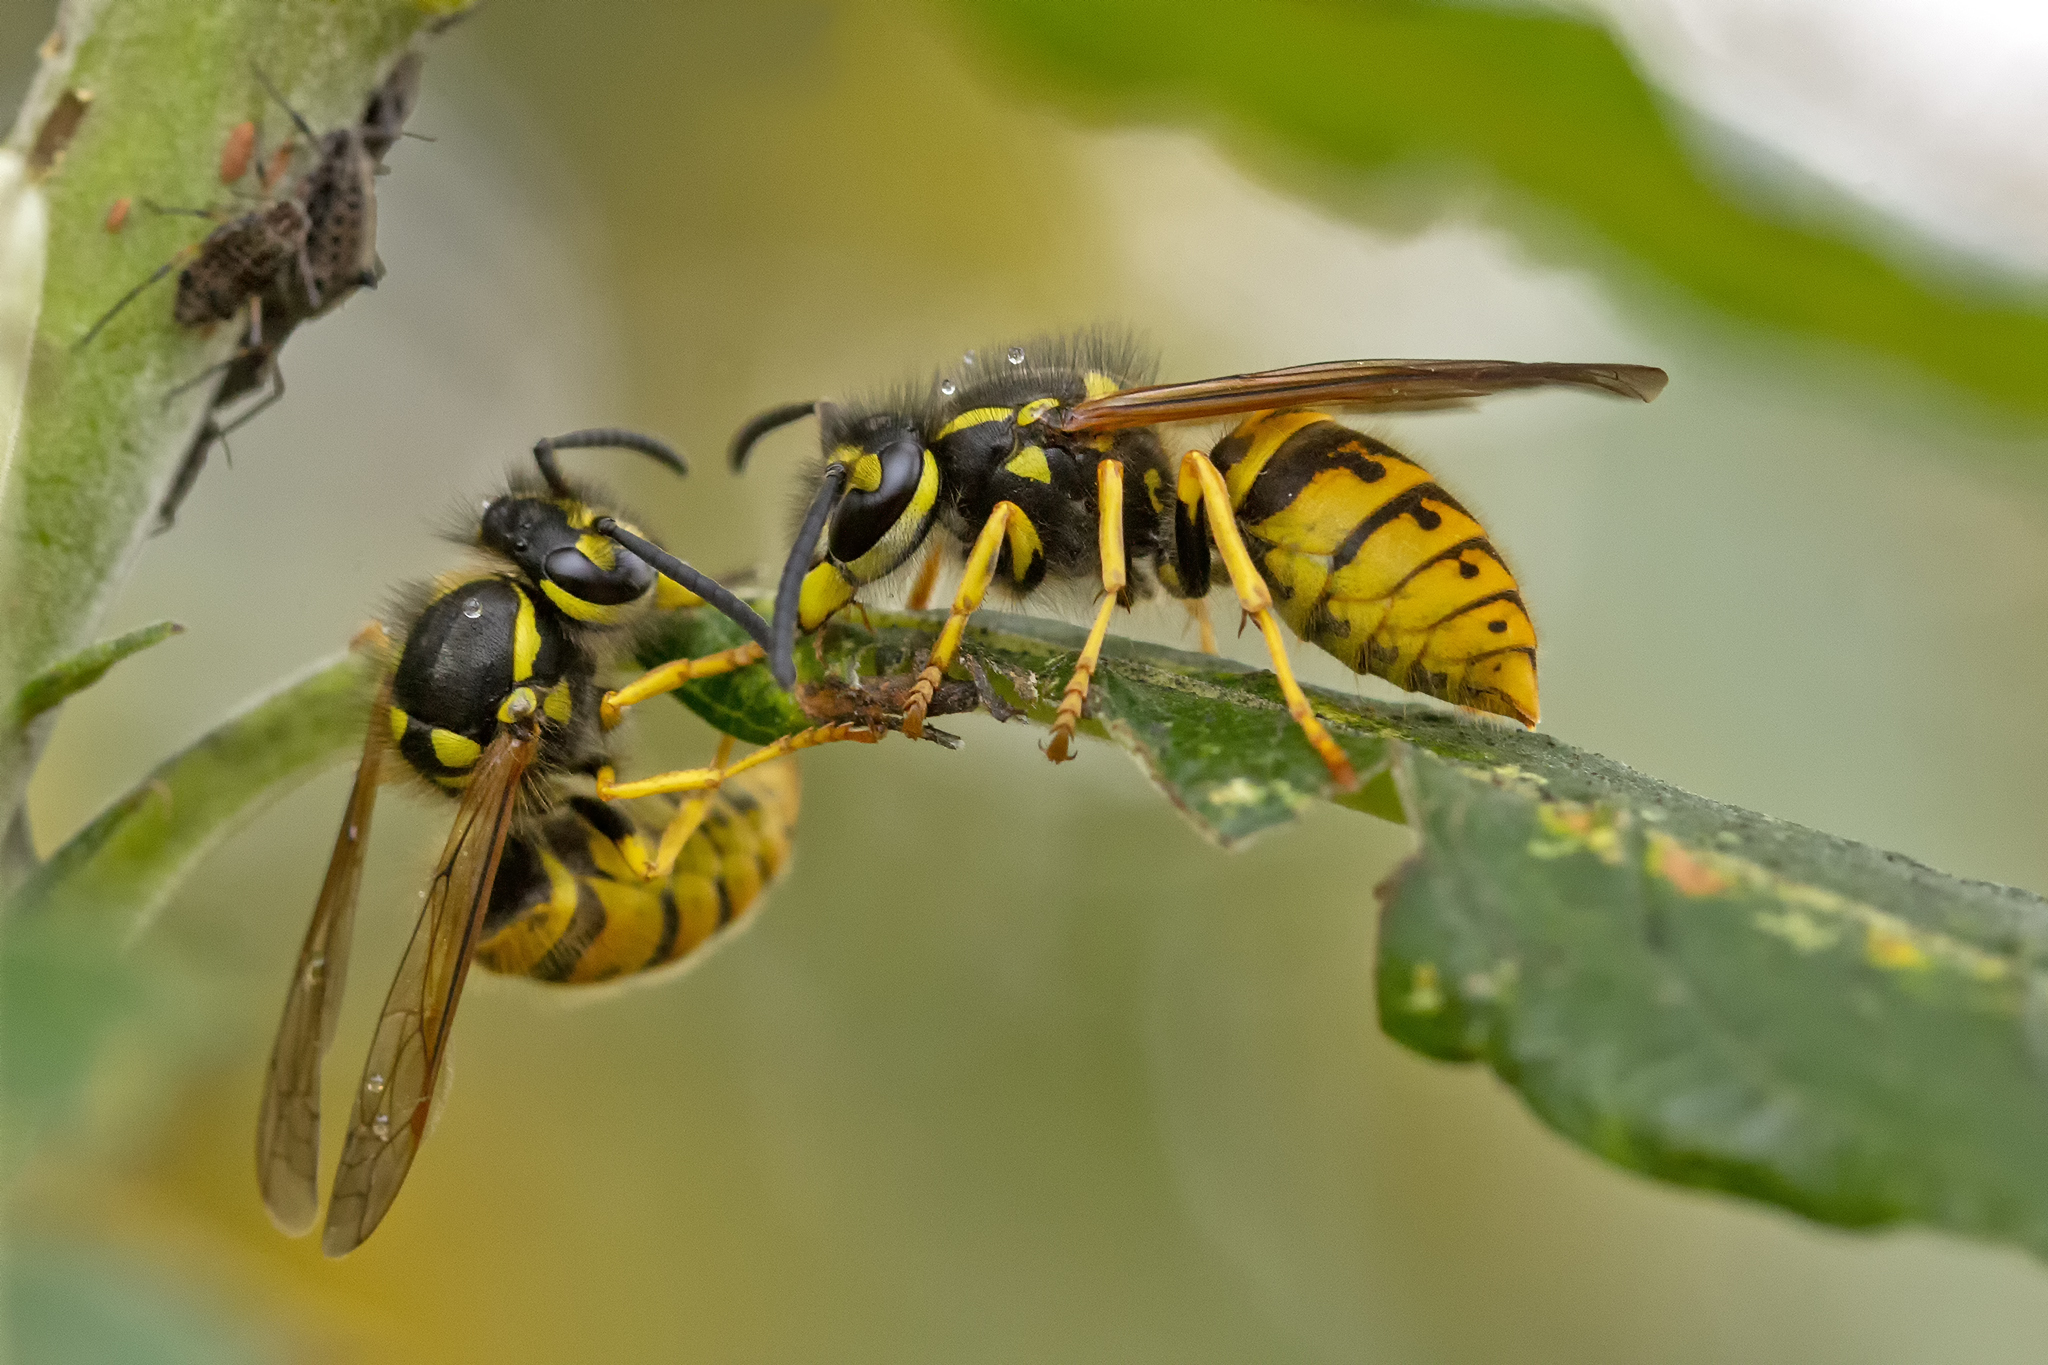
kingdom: Animalia
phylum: Arthropoda
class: Insecta
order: Hymenoptera
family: Vespidae
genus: Vespula
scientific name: Vespula germanica
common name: German wasp
